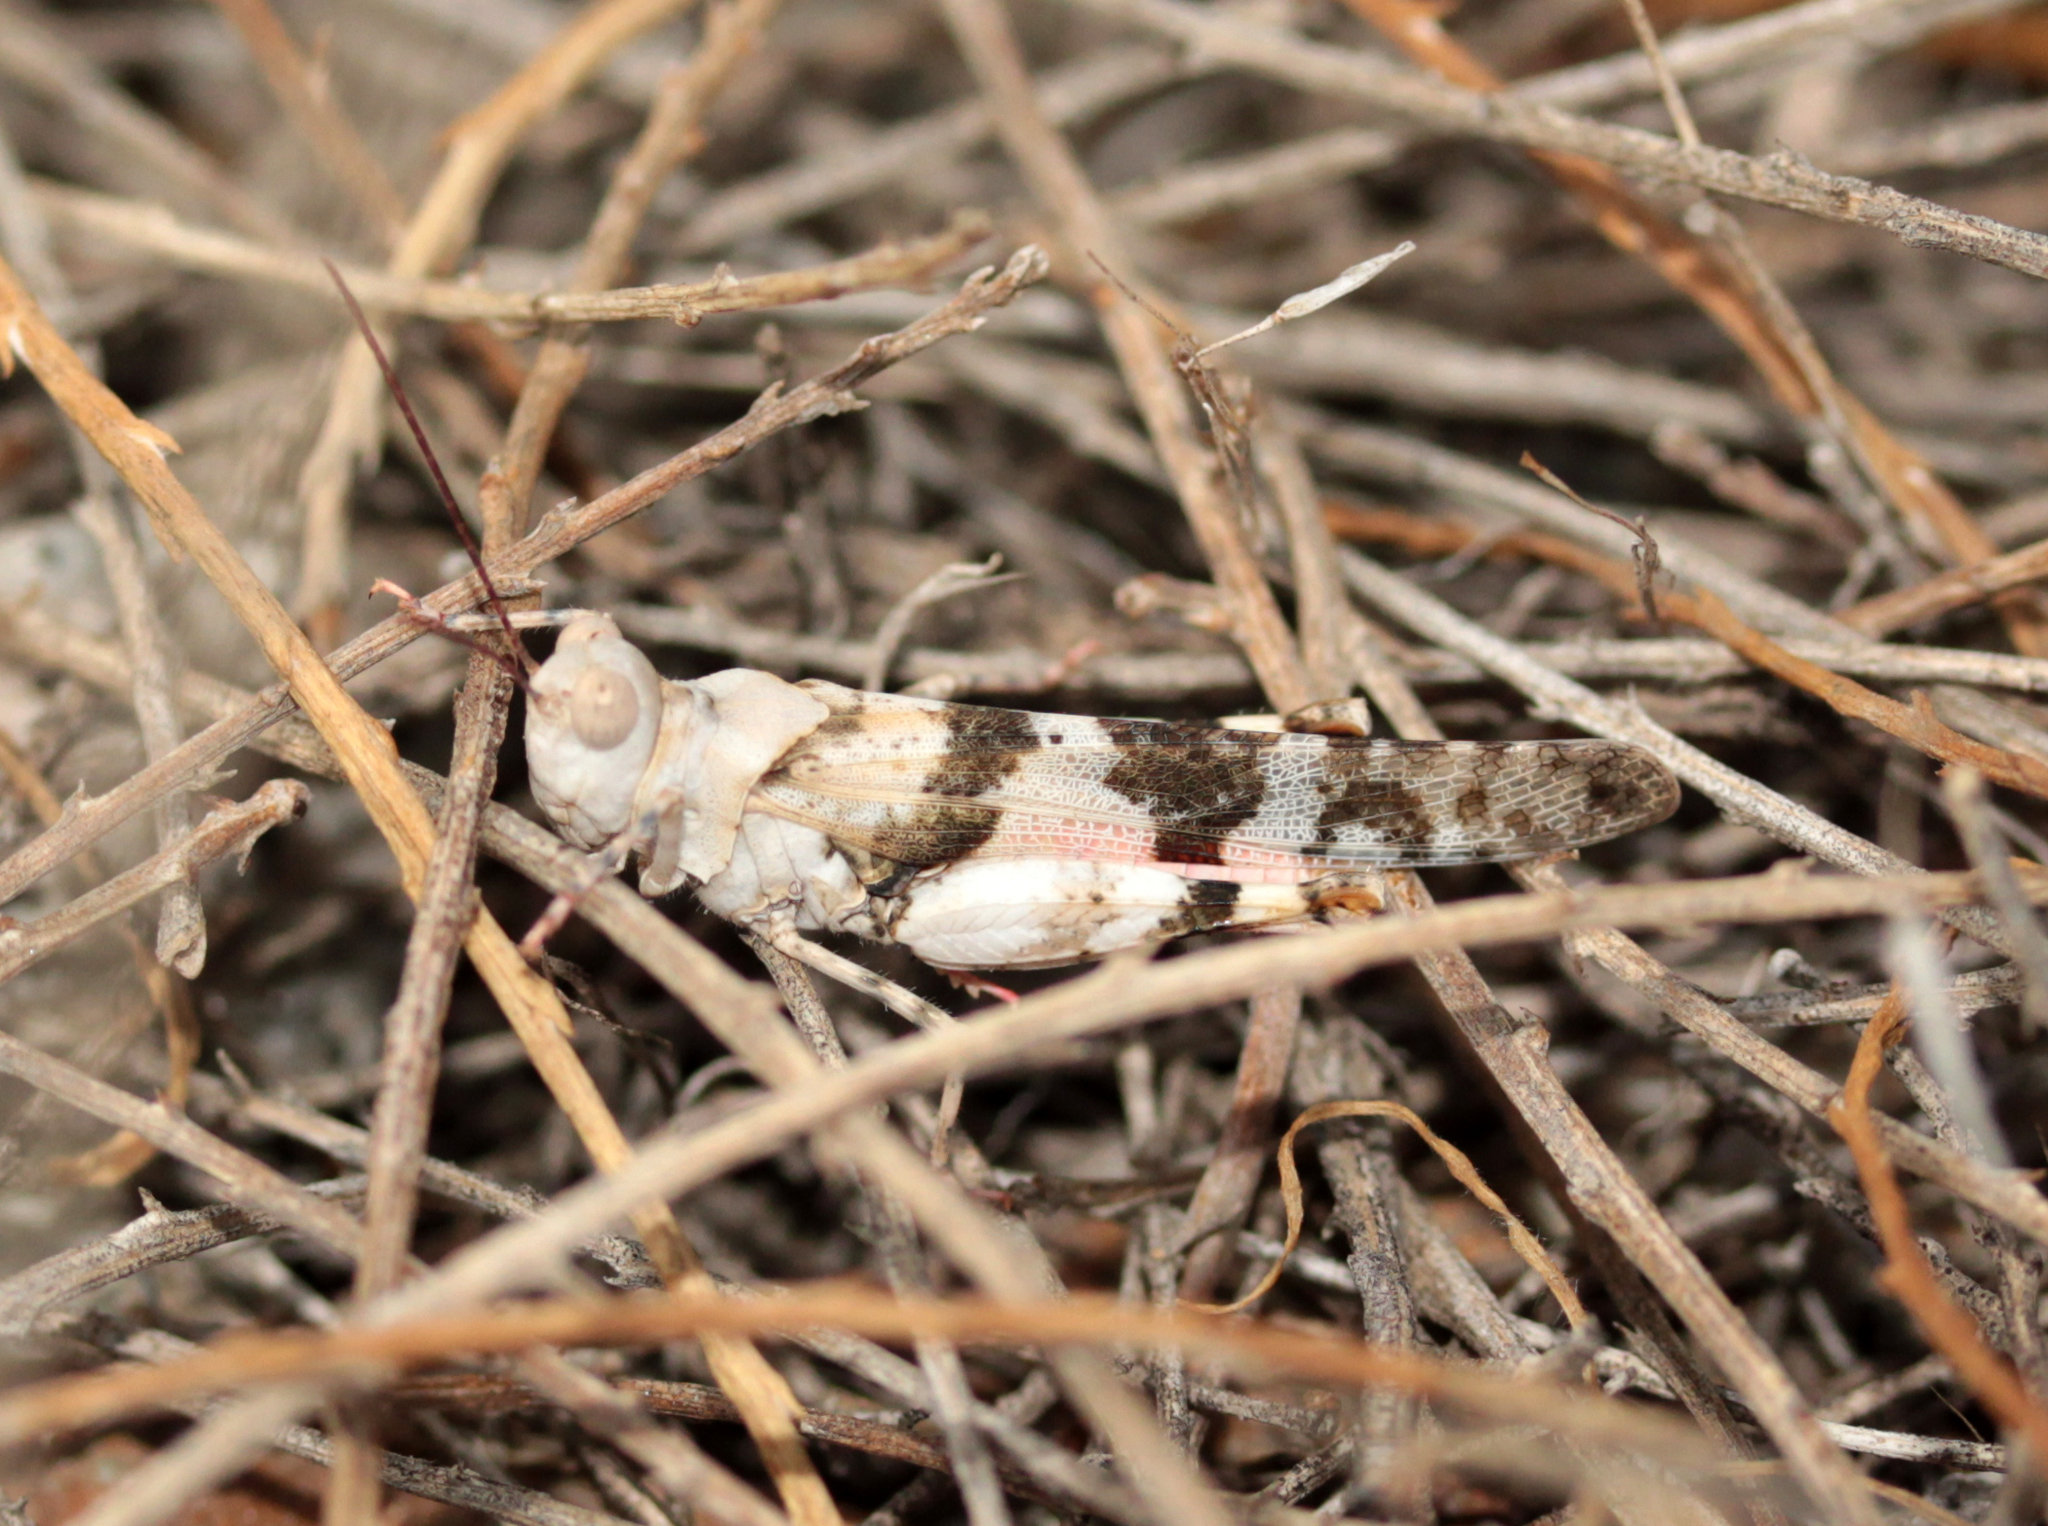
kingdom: Animalia
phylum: Arthropoda
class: Insecta
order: Orthoptera
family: Acrididae
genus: Trimerotropis
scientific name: Trimerotropis californica
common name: California band-winged grasshopper
